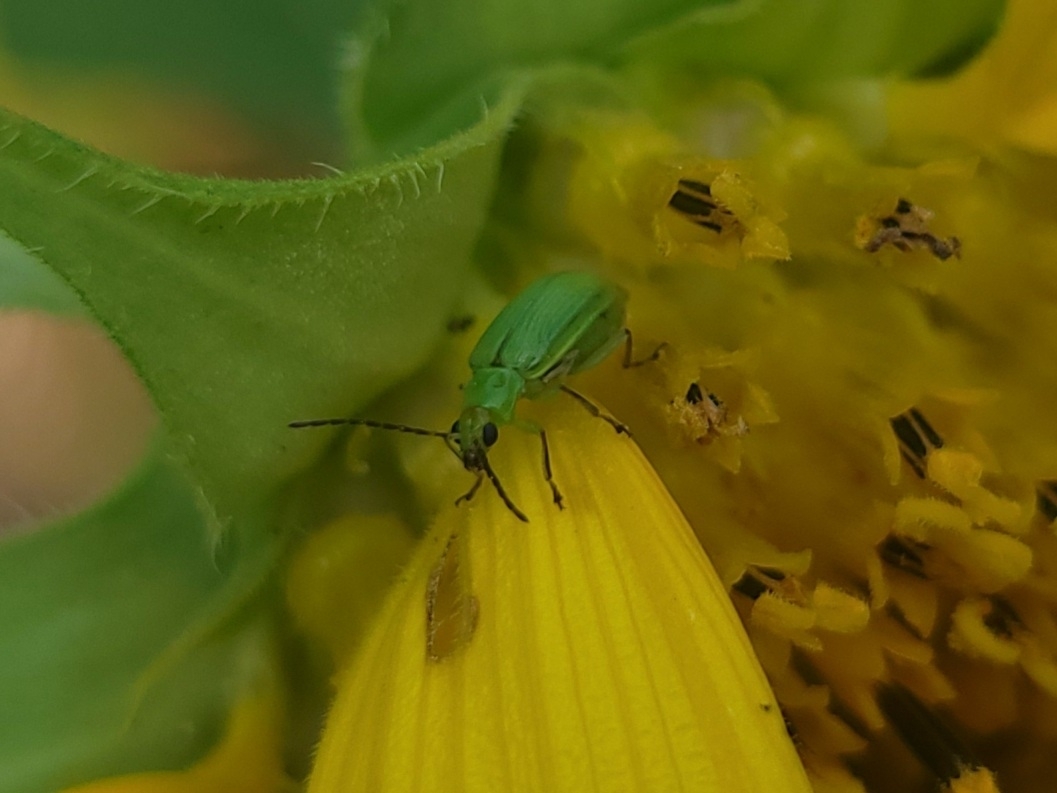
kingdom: Animalia
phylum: Arthropoda
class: Insecta
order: Coleoptera
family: Chrysomelidae
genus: Diabrotica
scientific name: Diabrotica barberi
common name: Northern corn rootworm
